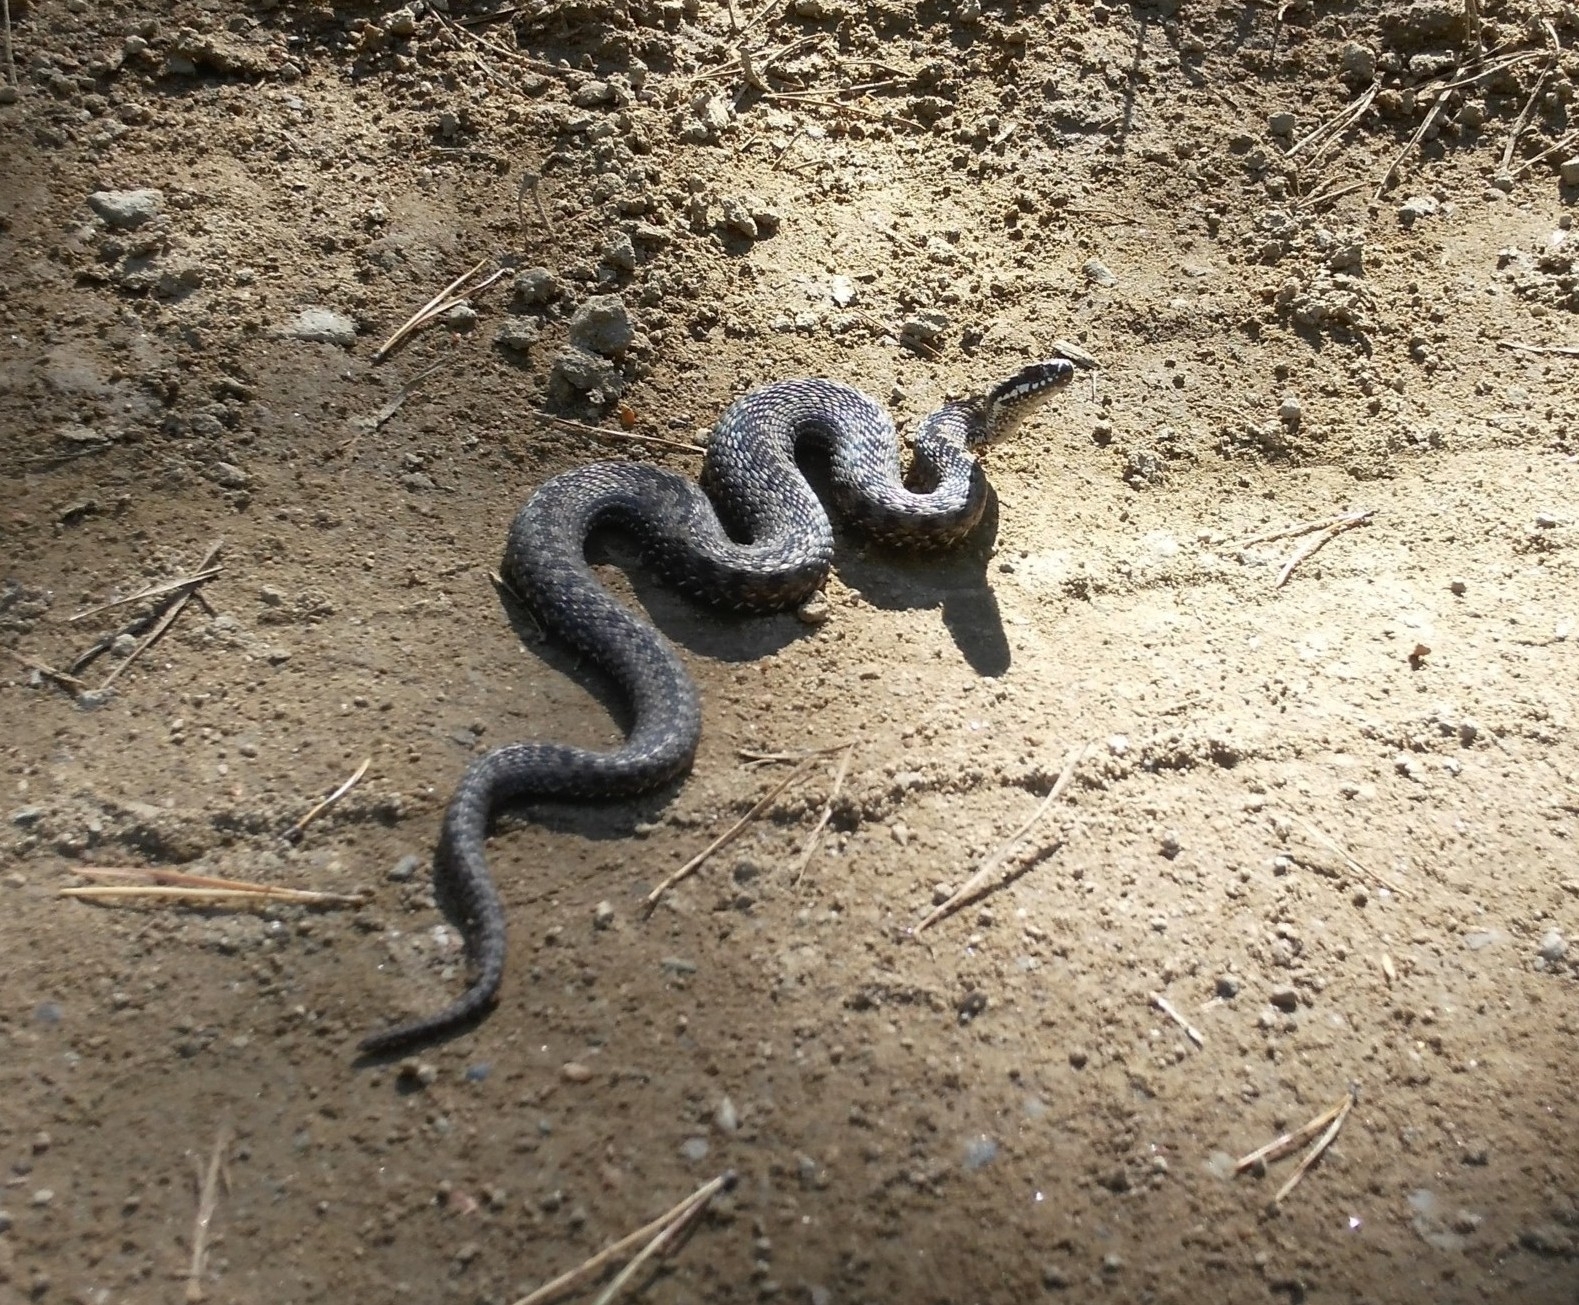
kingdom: Animalia
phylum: Chordata
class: Squamata
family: Viperidae
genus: Vipera
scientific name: Vipera berus
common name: Adder
